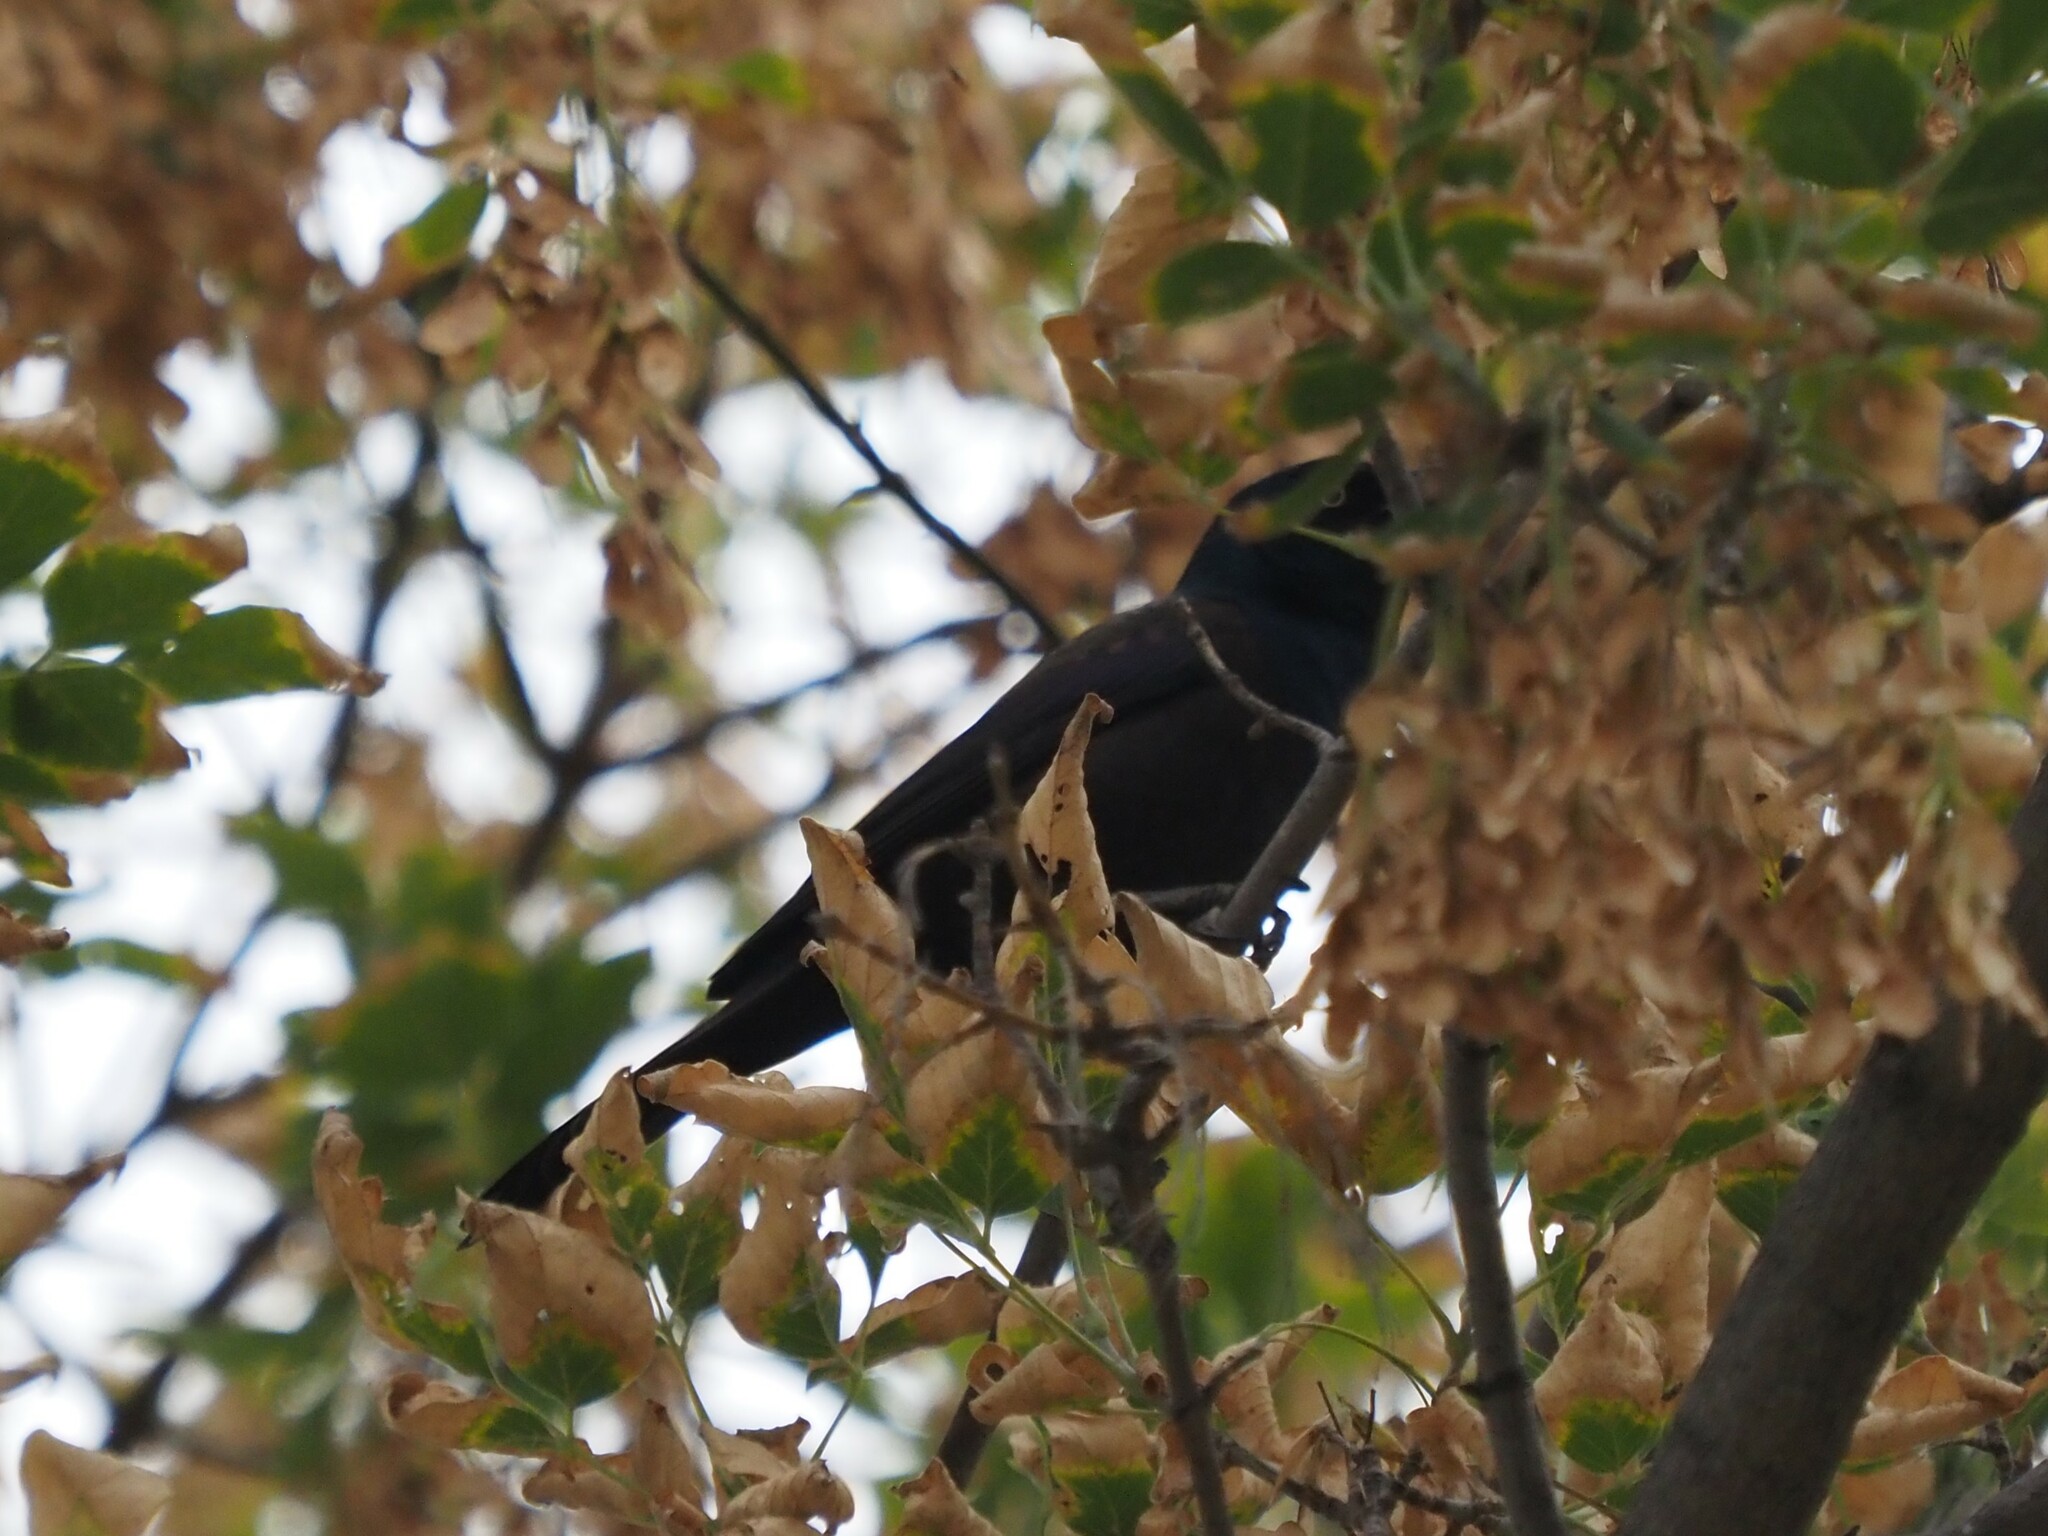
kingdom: Animalia
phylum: Chordata
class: Aves
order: Passeriformes
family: Icteridae
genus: Quiscalus
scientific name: Quiscalus quiscula
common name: Common grackle
